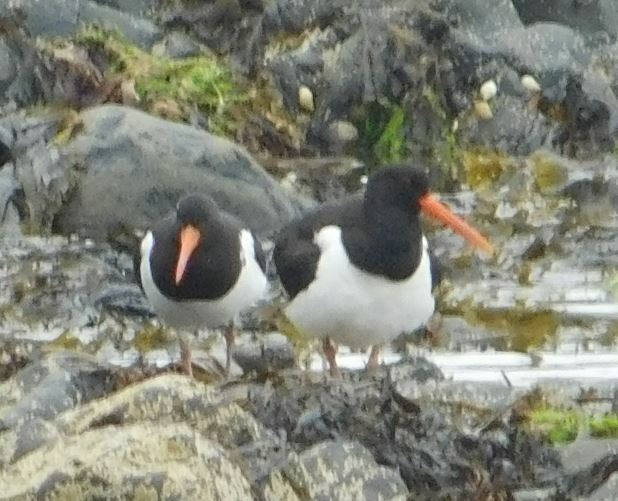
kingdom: Animalia
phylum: Chordata
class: Aves
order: Charadriiformes
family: Haematopodidae
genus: Haematopus
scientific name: Haematopus ostralegus
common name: Eurasian oystercatcher
